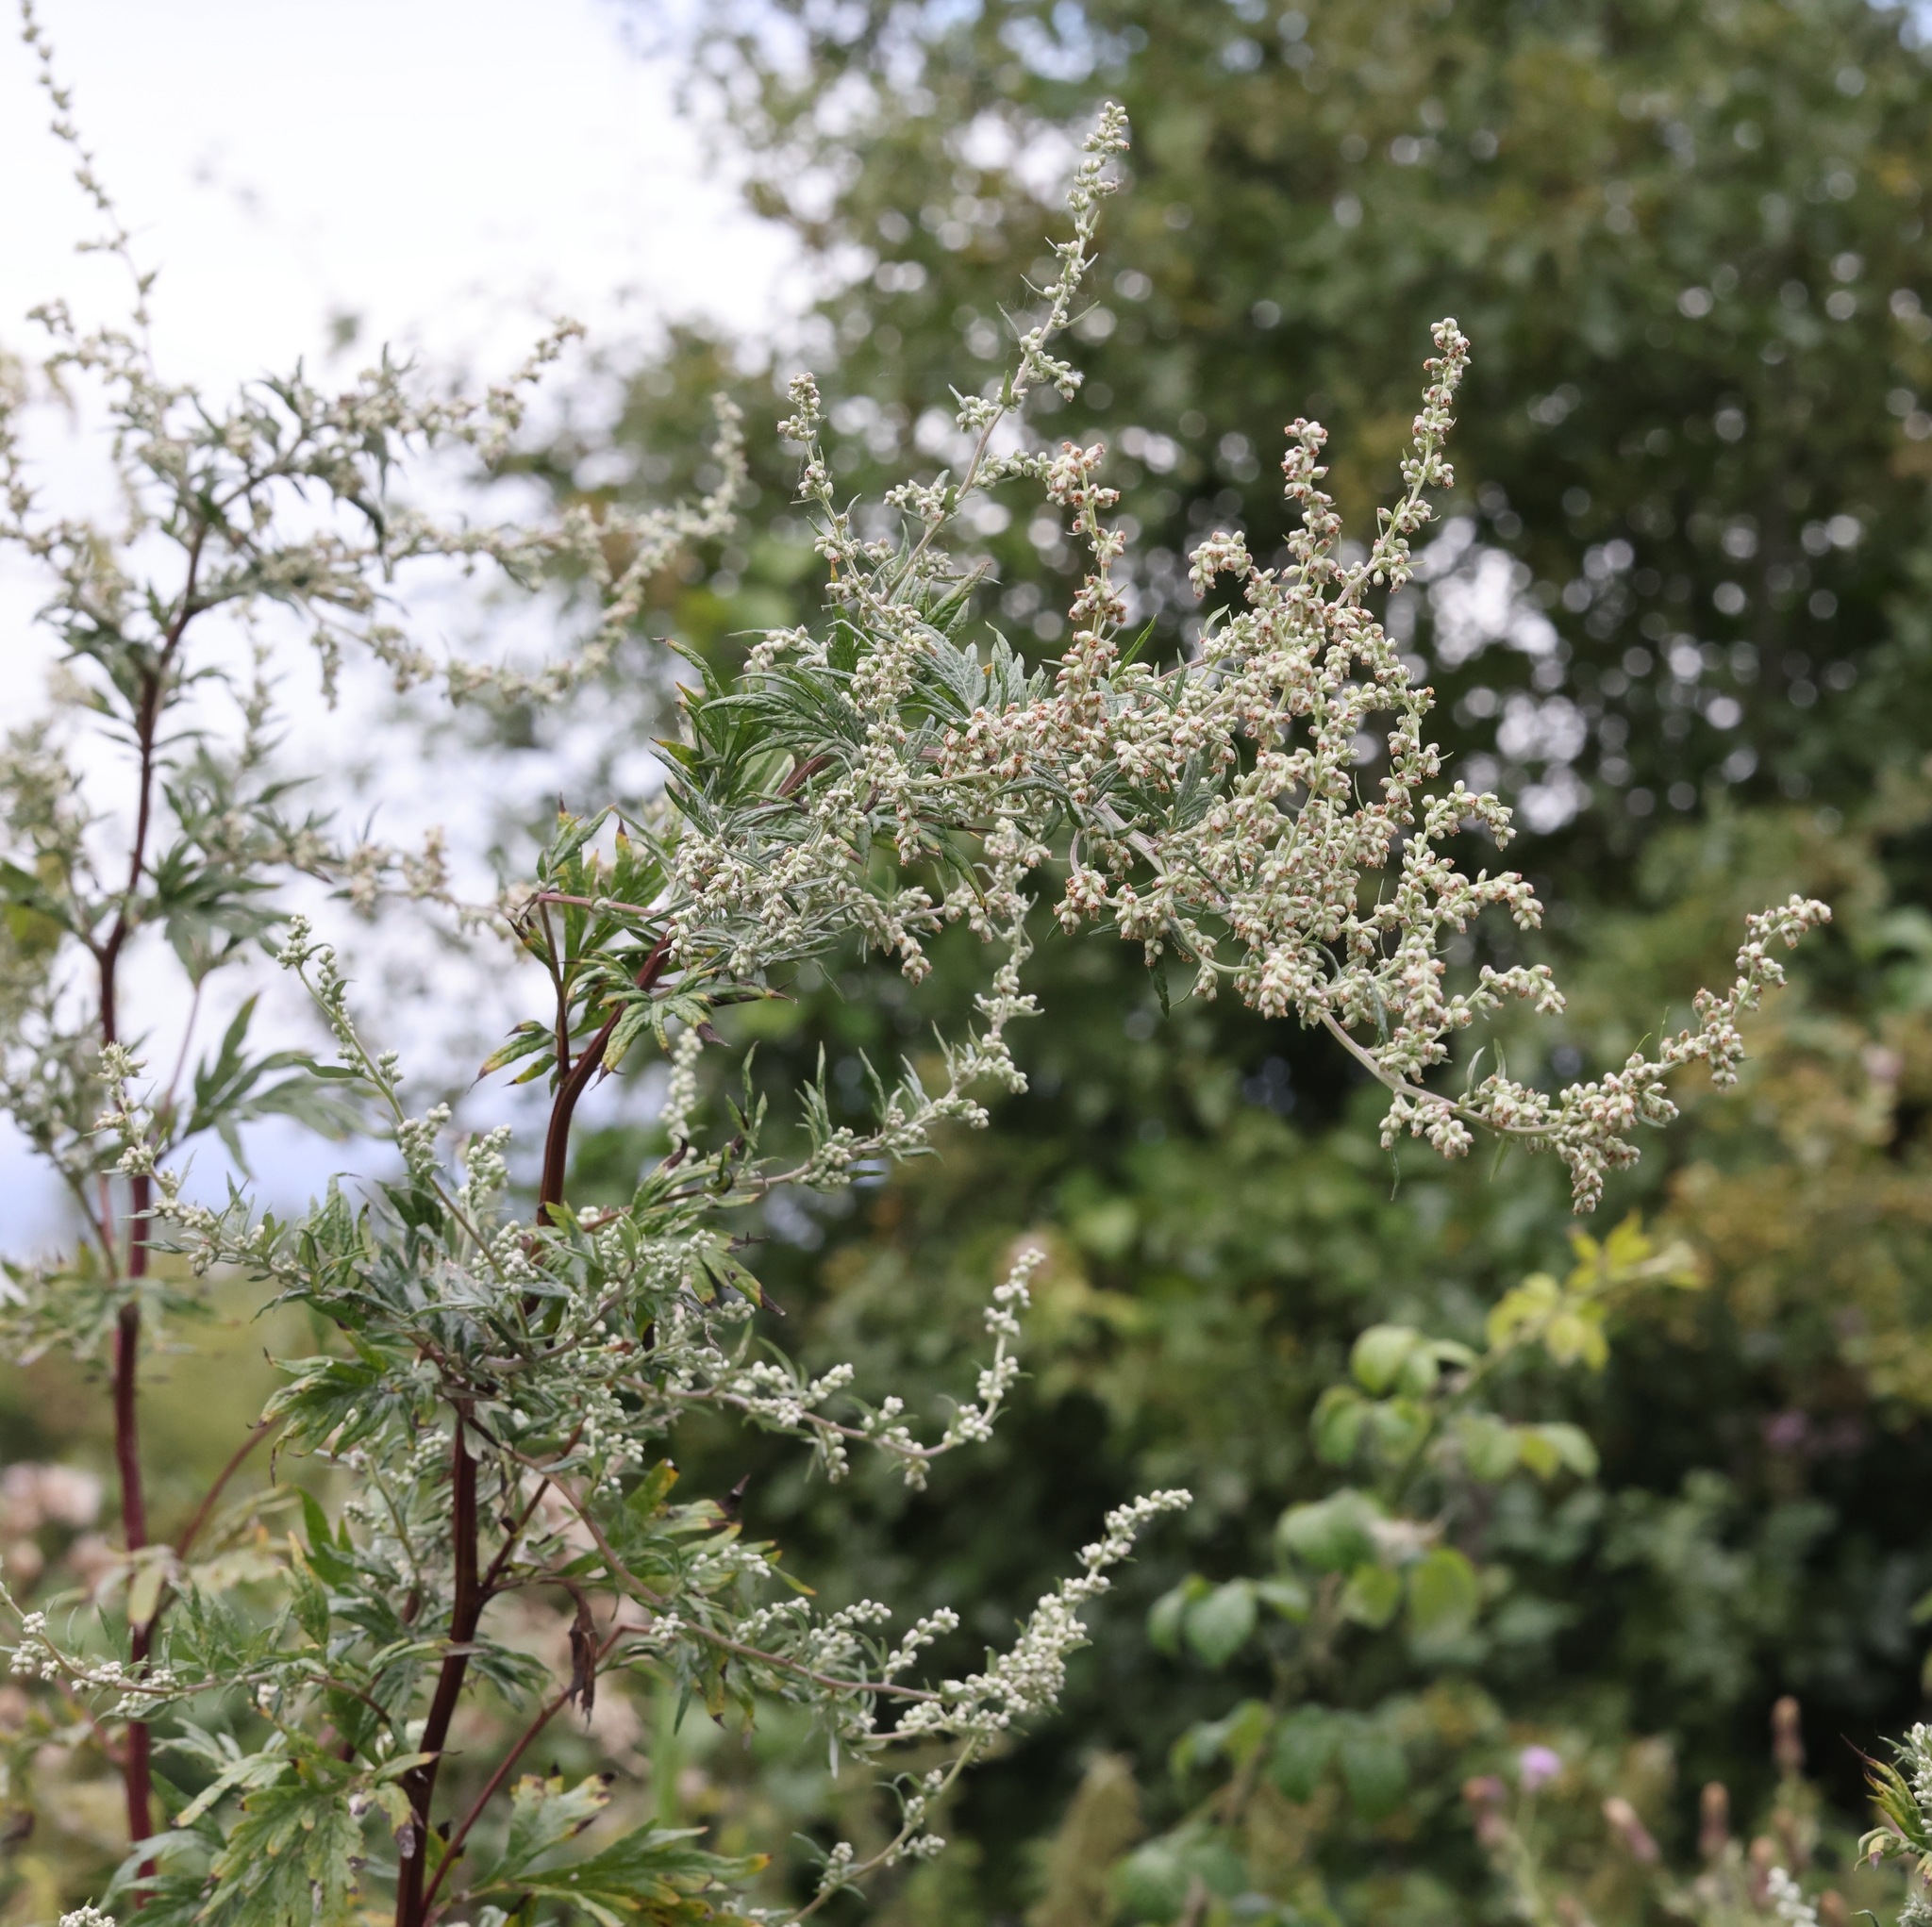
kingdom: Plantae
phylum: Tracheophyta
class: Magnoliopsida
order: Asterales
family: Asteraceae
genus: Artemisia
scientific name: Artemisia vulgaris
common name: Mugwort
